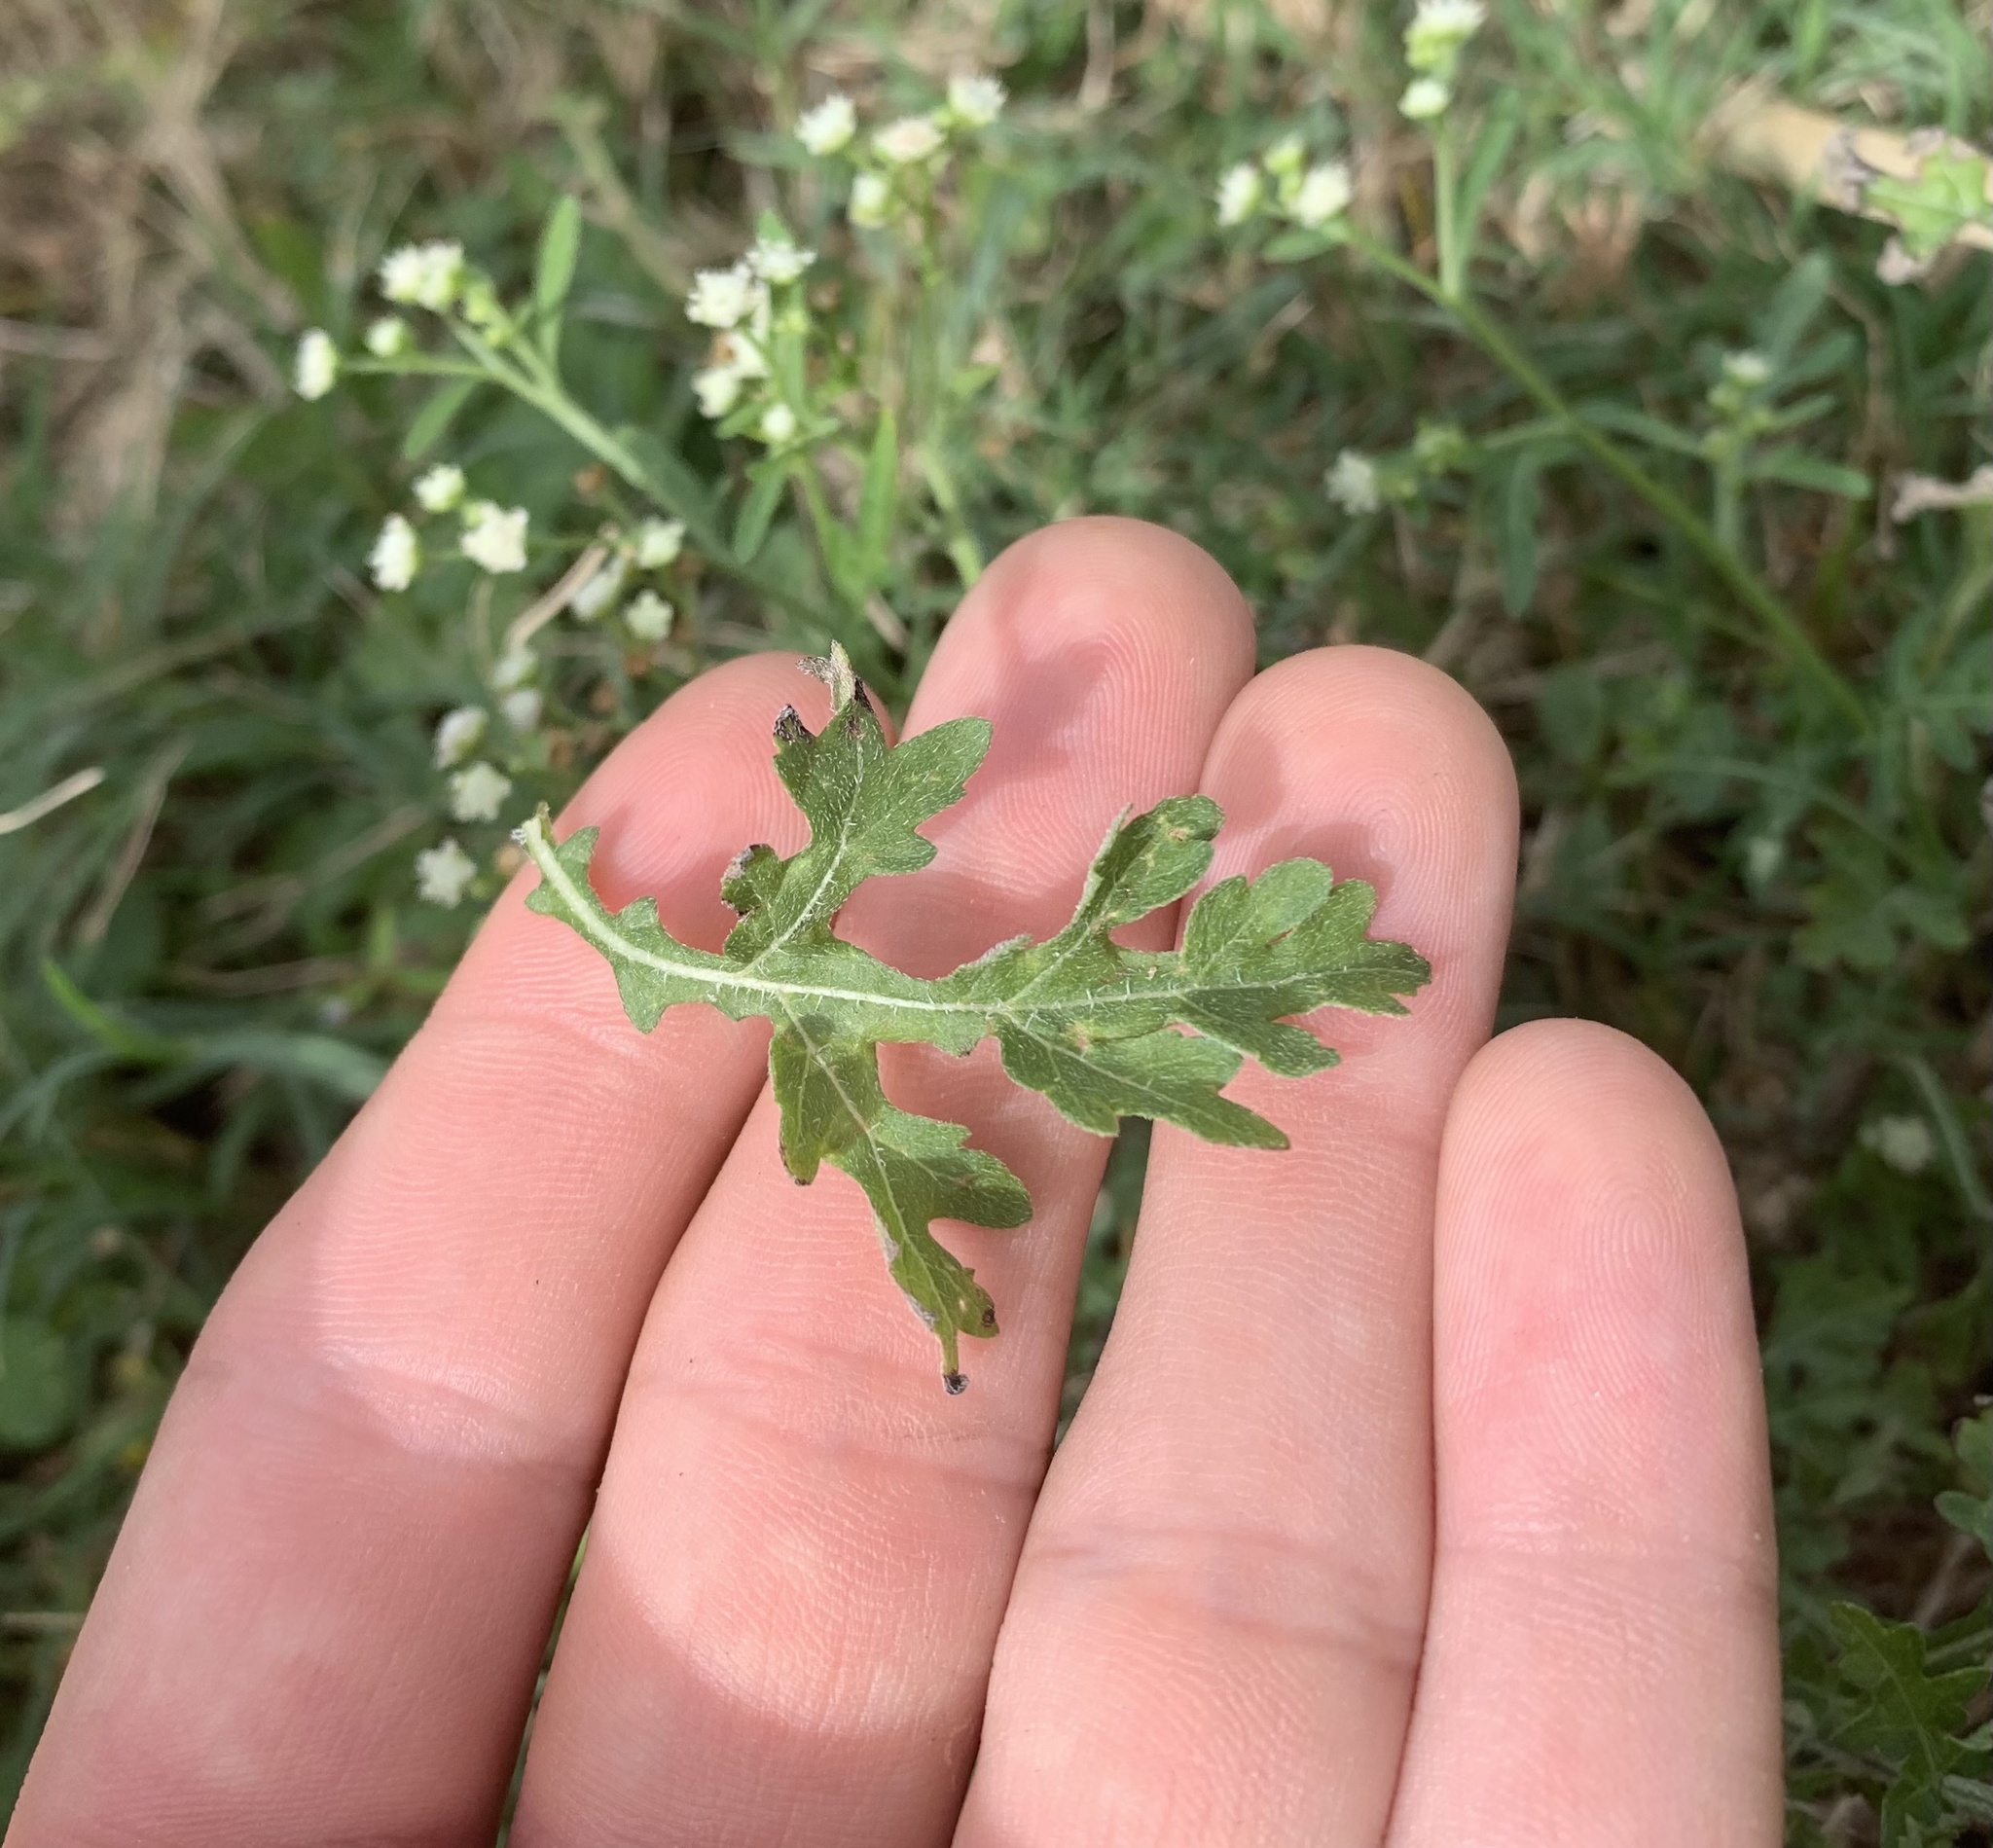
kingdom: Plantae
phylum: Tracheophyta
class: Magnoliopsida
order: Asterales
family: Asteraceae
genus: Parthenium
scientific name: Parthenium hysterophorus
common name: Santa maria feverfew
